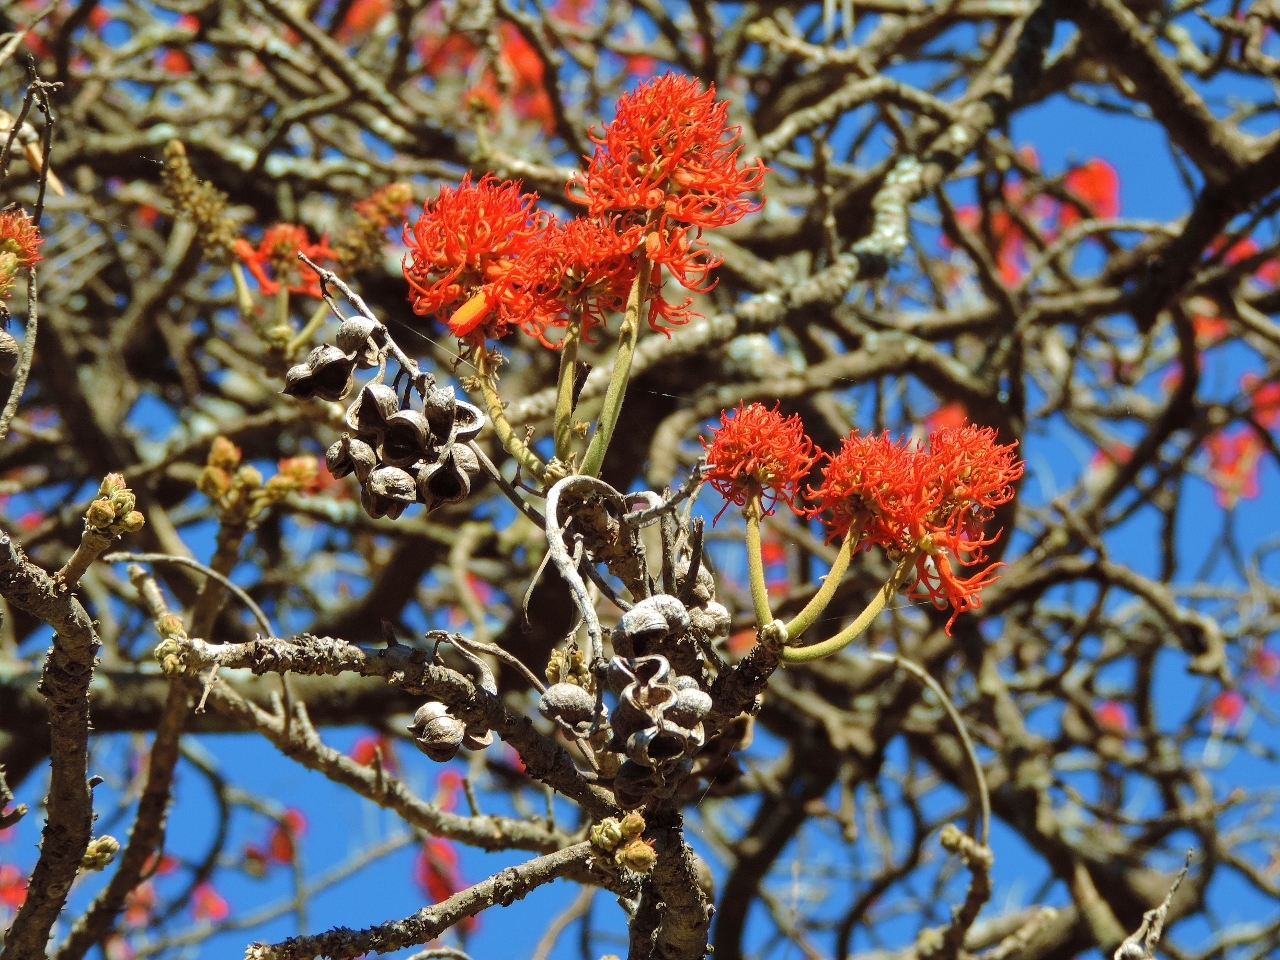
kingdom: Plantae
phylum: Tracheophyta
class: Magnoliopsida
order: Fabales
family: Fabaceae
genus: Erythrina
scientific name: Erythrina abyssinica
